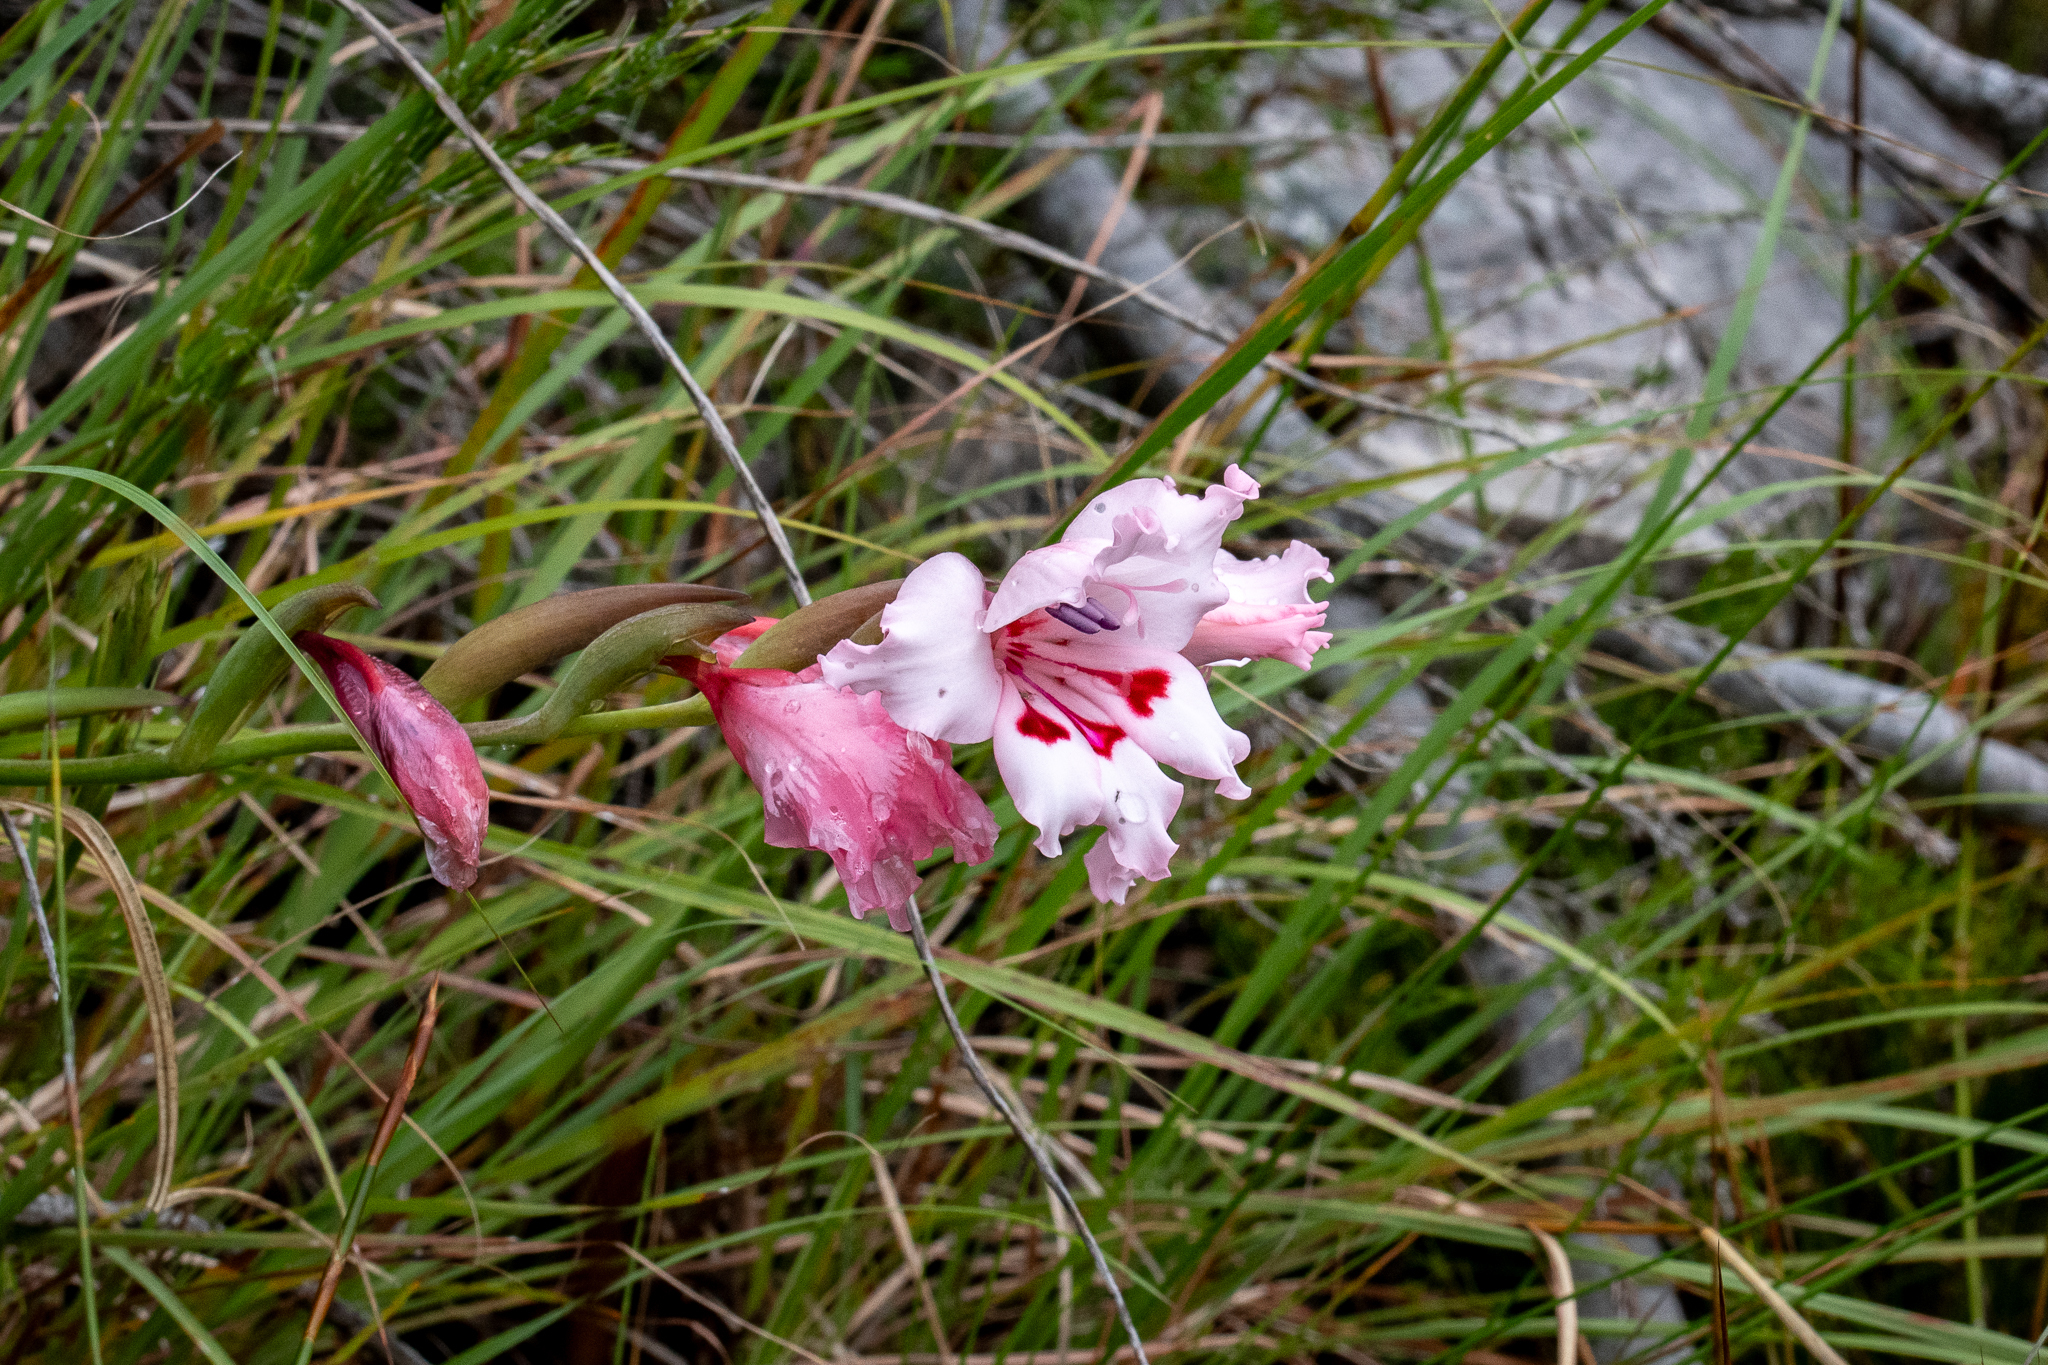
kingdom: Plantae
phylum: Tracheophyta
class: Liliopsida
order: Asparagales
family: Iridaceae
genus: Gladiolus
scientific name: Gladiolus carneus
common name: Painted-lady
